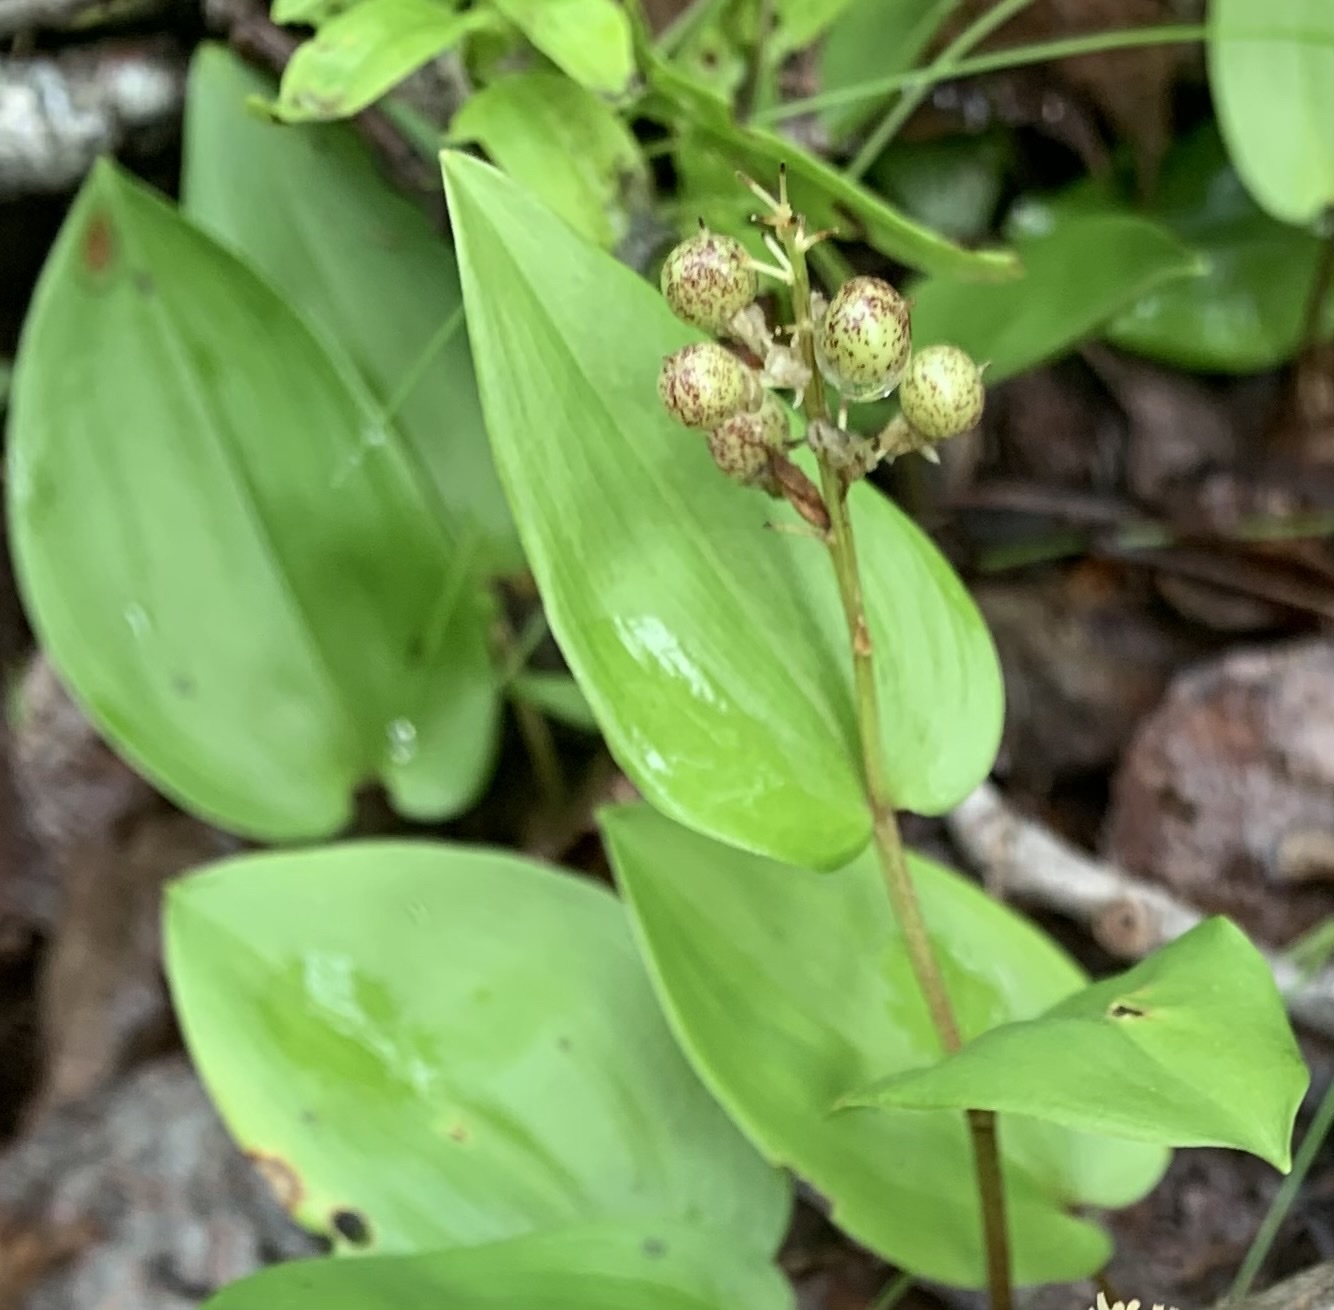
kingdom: Plantae
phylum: Tracheophyta
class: Liliopsida
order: Asparagales
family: Asparagaceae
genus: Maianthemum
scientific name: Maianthemum canadense
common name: False lily-of-the-valley
